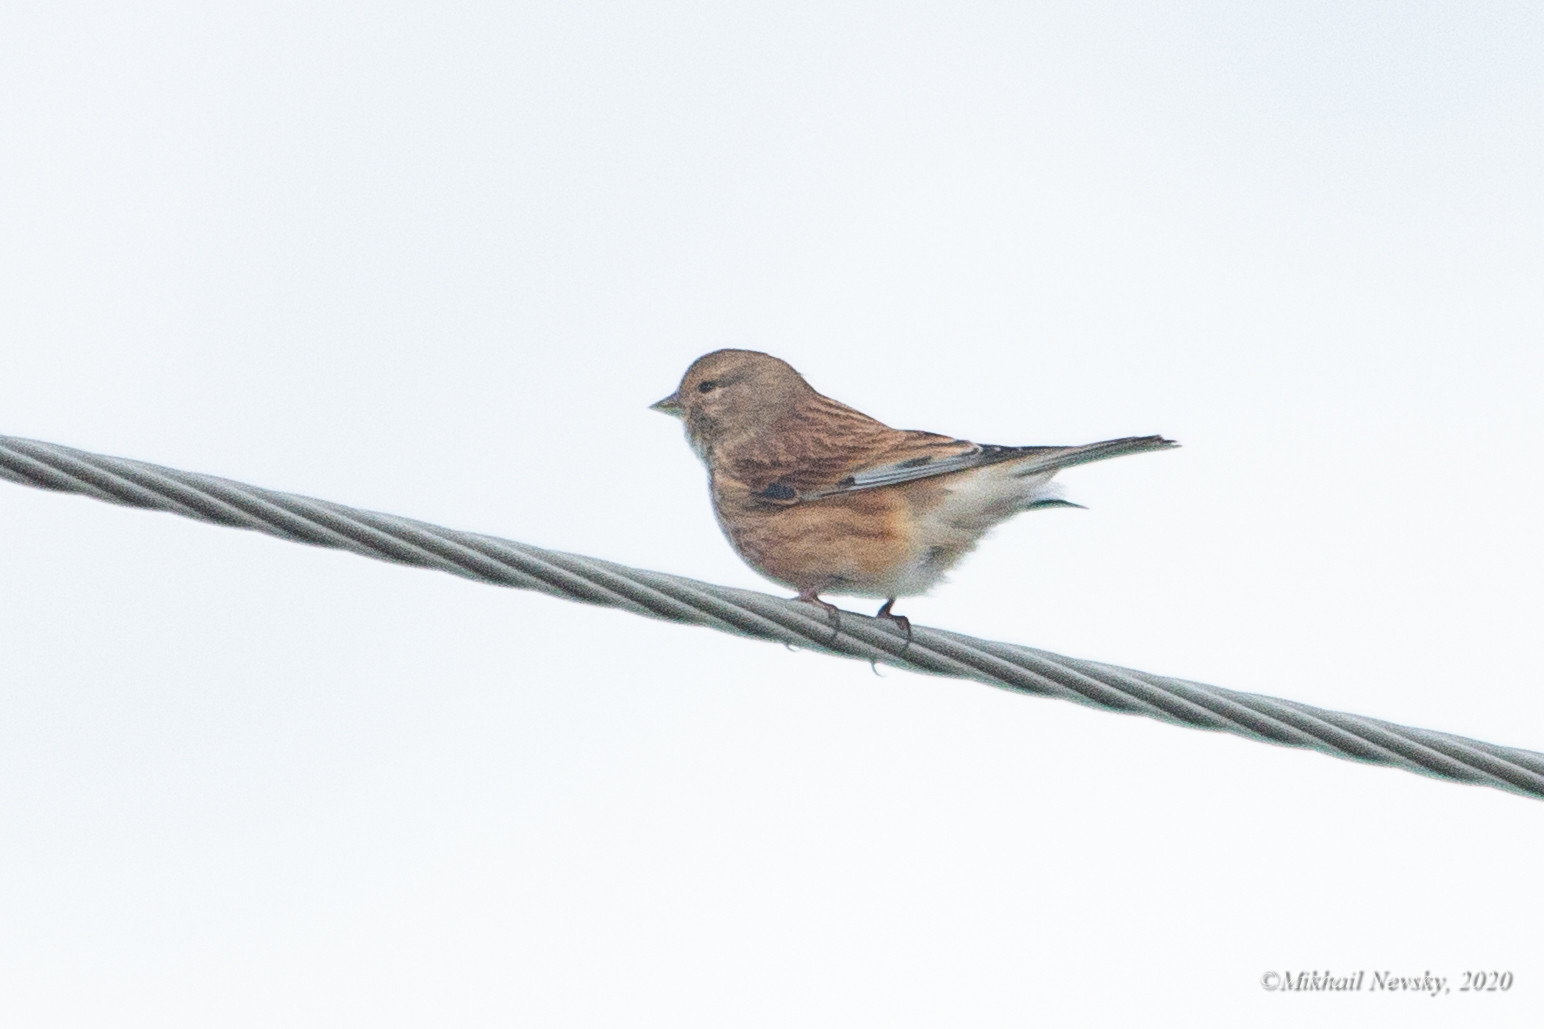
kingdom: Animalia
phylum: Chordata
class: Aves
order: Passeriformes
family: Fringillidae
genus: Linaria
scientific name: Linaria cannabina
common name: Common linnet
